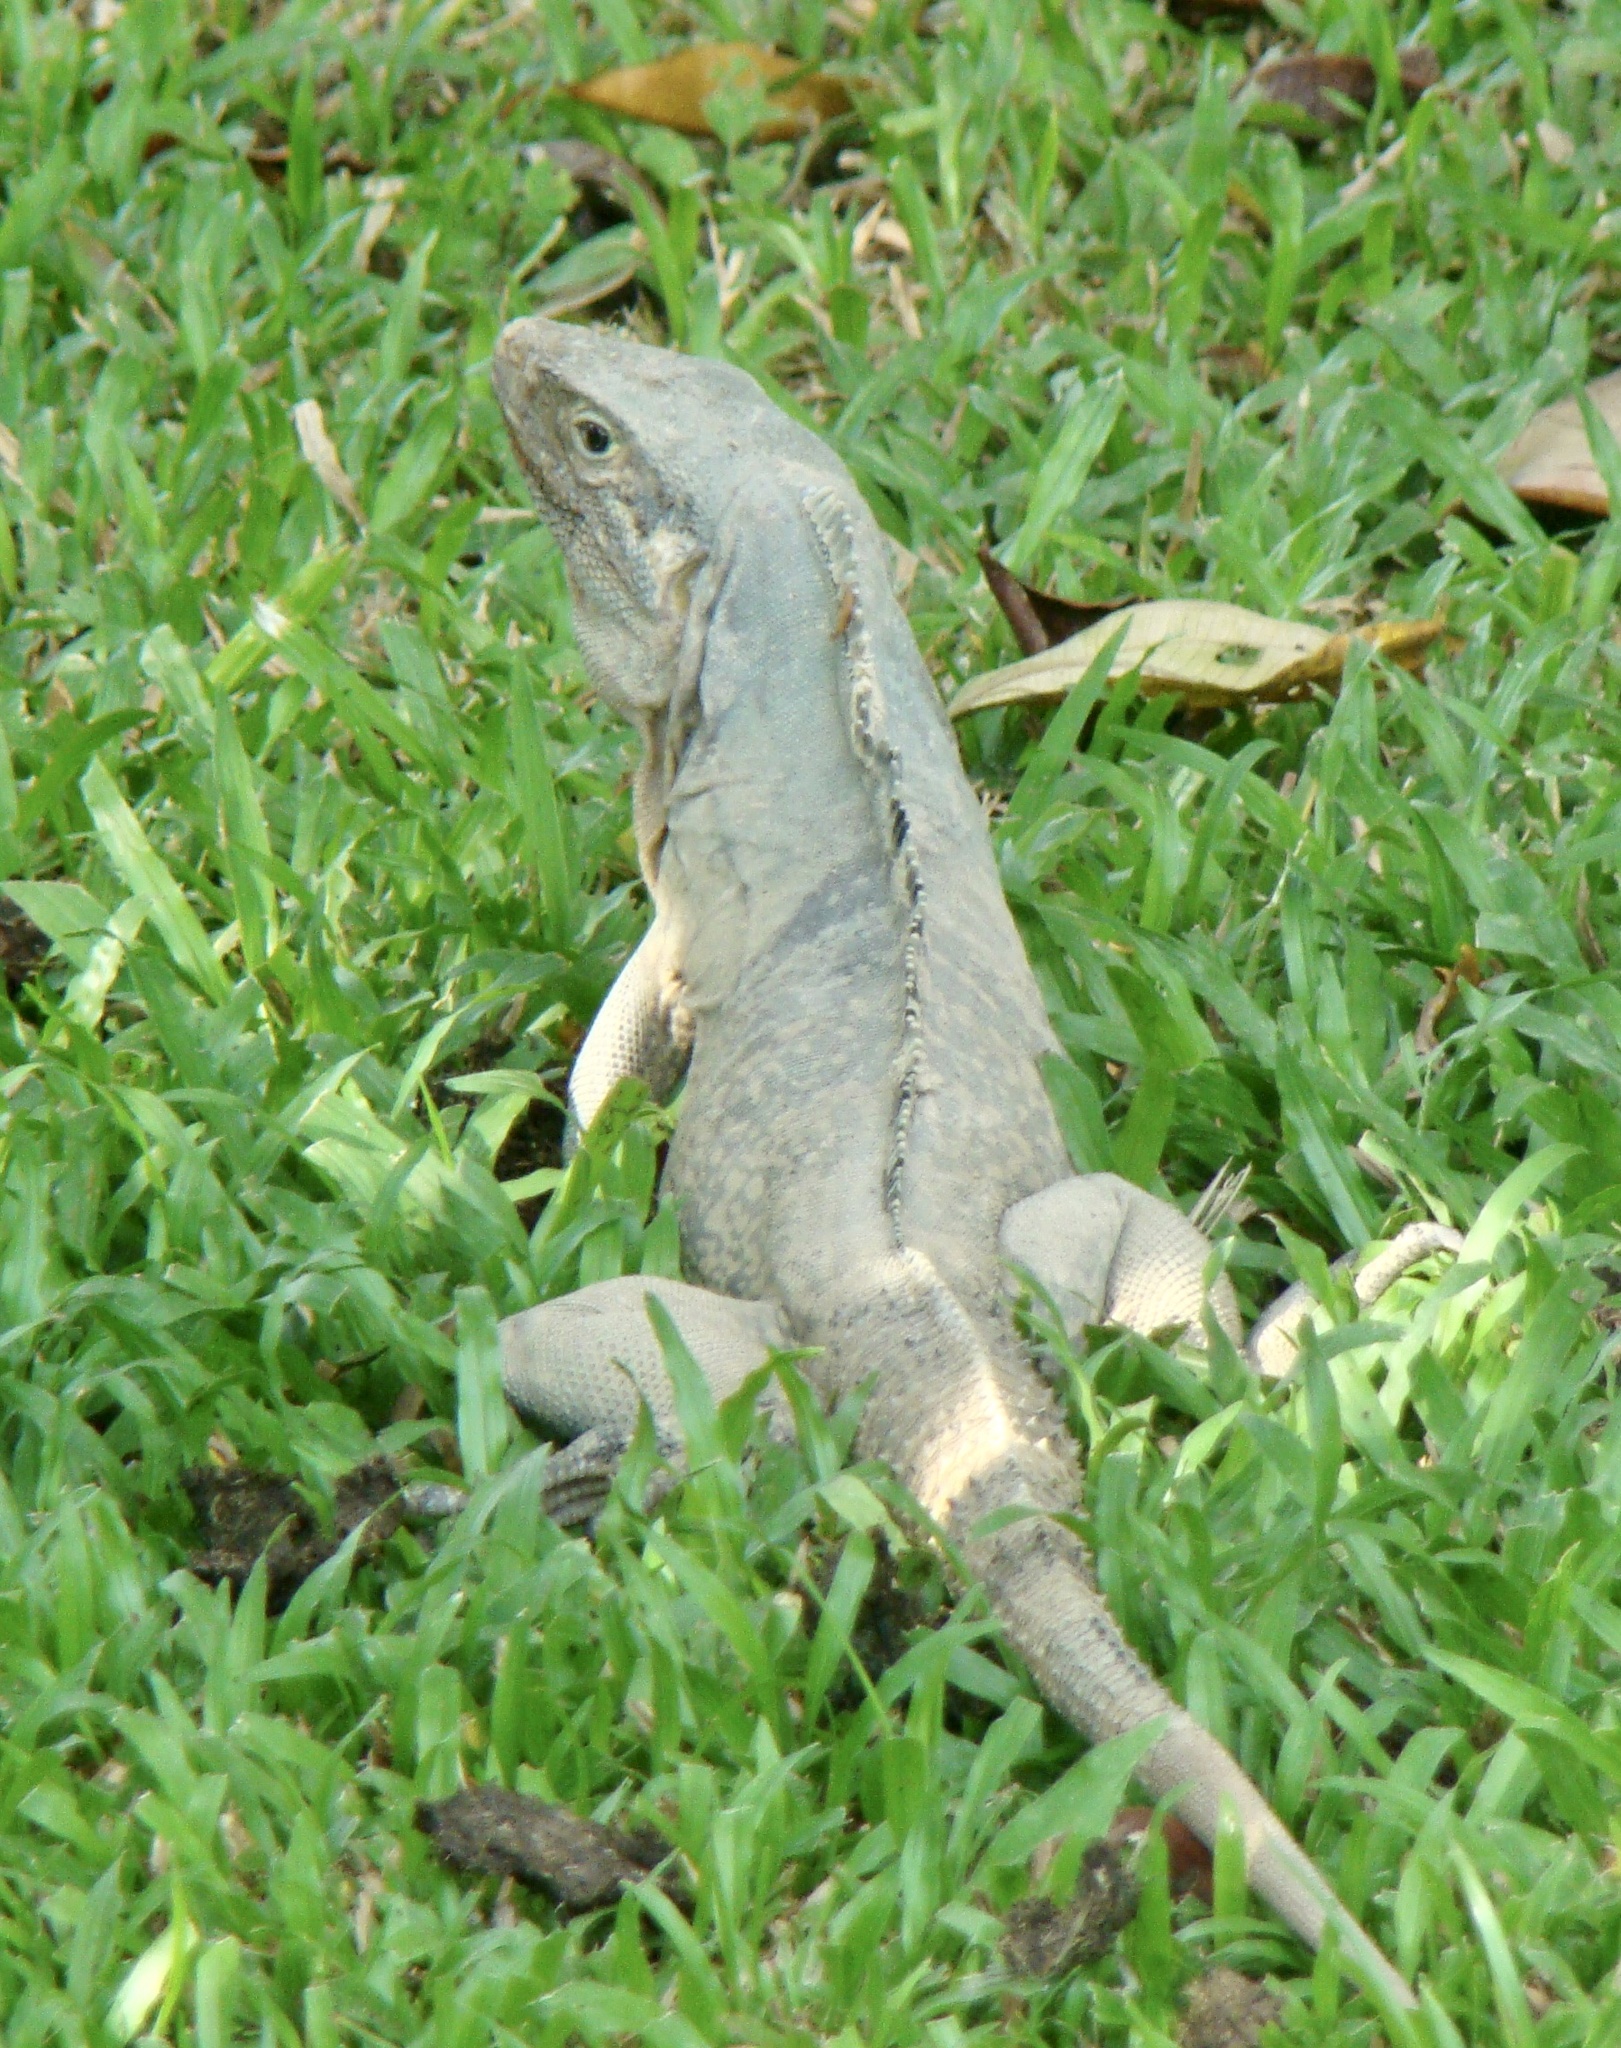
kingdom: Animalia
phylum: Chordata
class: Squamata
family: Iguanidae
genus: Ctenosaura
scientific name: Ctenosaura similis
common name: Black spiny-tailed iguana
